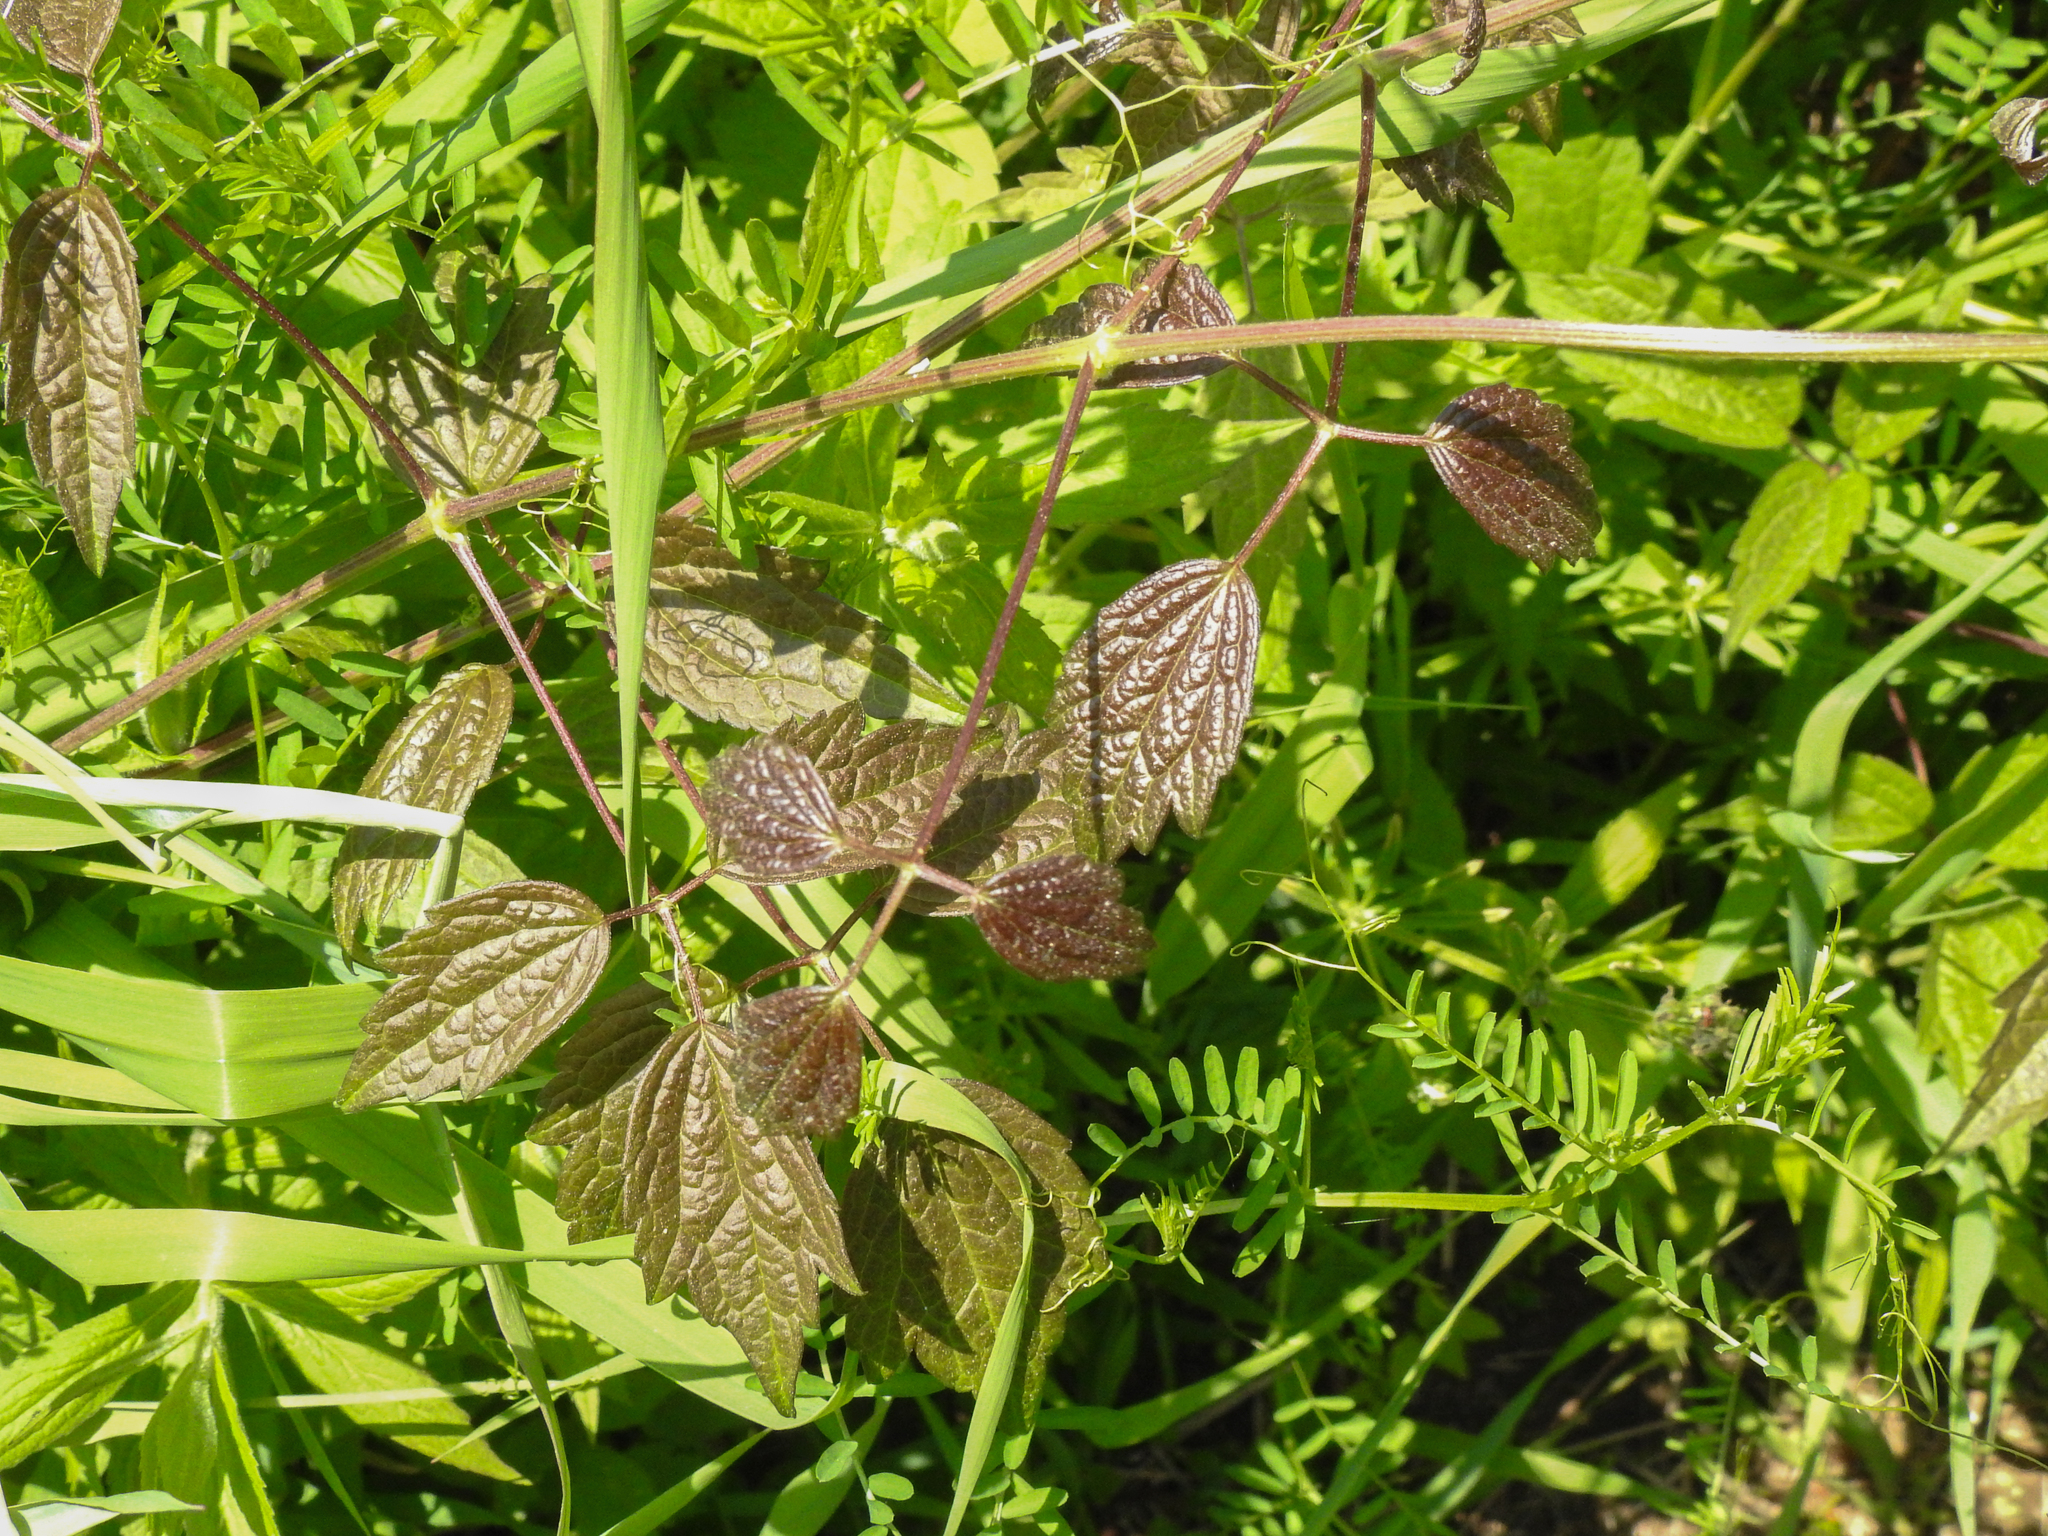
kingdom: Plantae
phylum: Tracheophyta
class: Magnoliopsida
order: Ranunculales
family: Ranunculaceae
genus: Clematis
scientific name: Clematis virginiana
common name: Virgin's-bower
